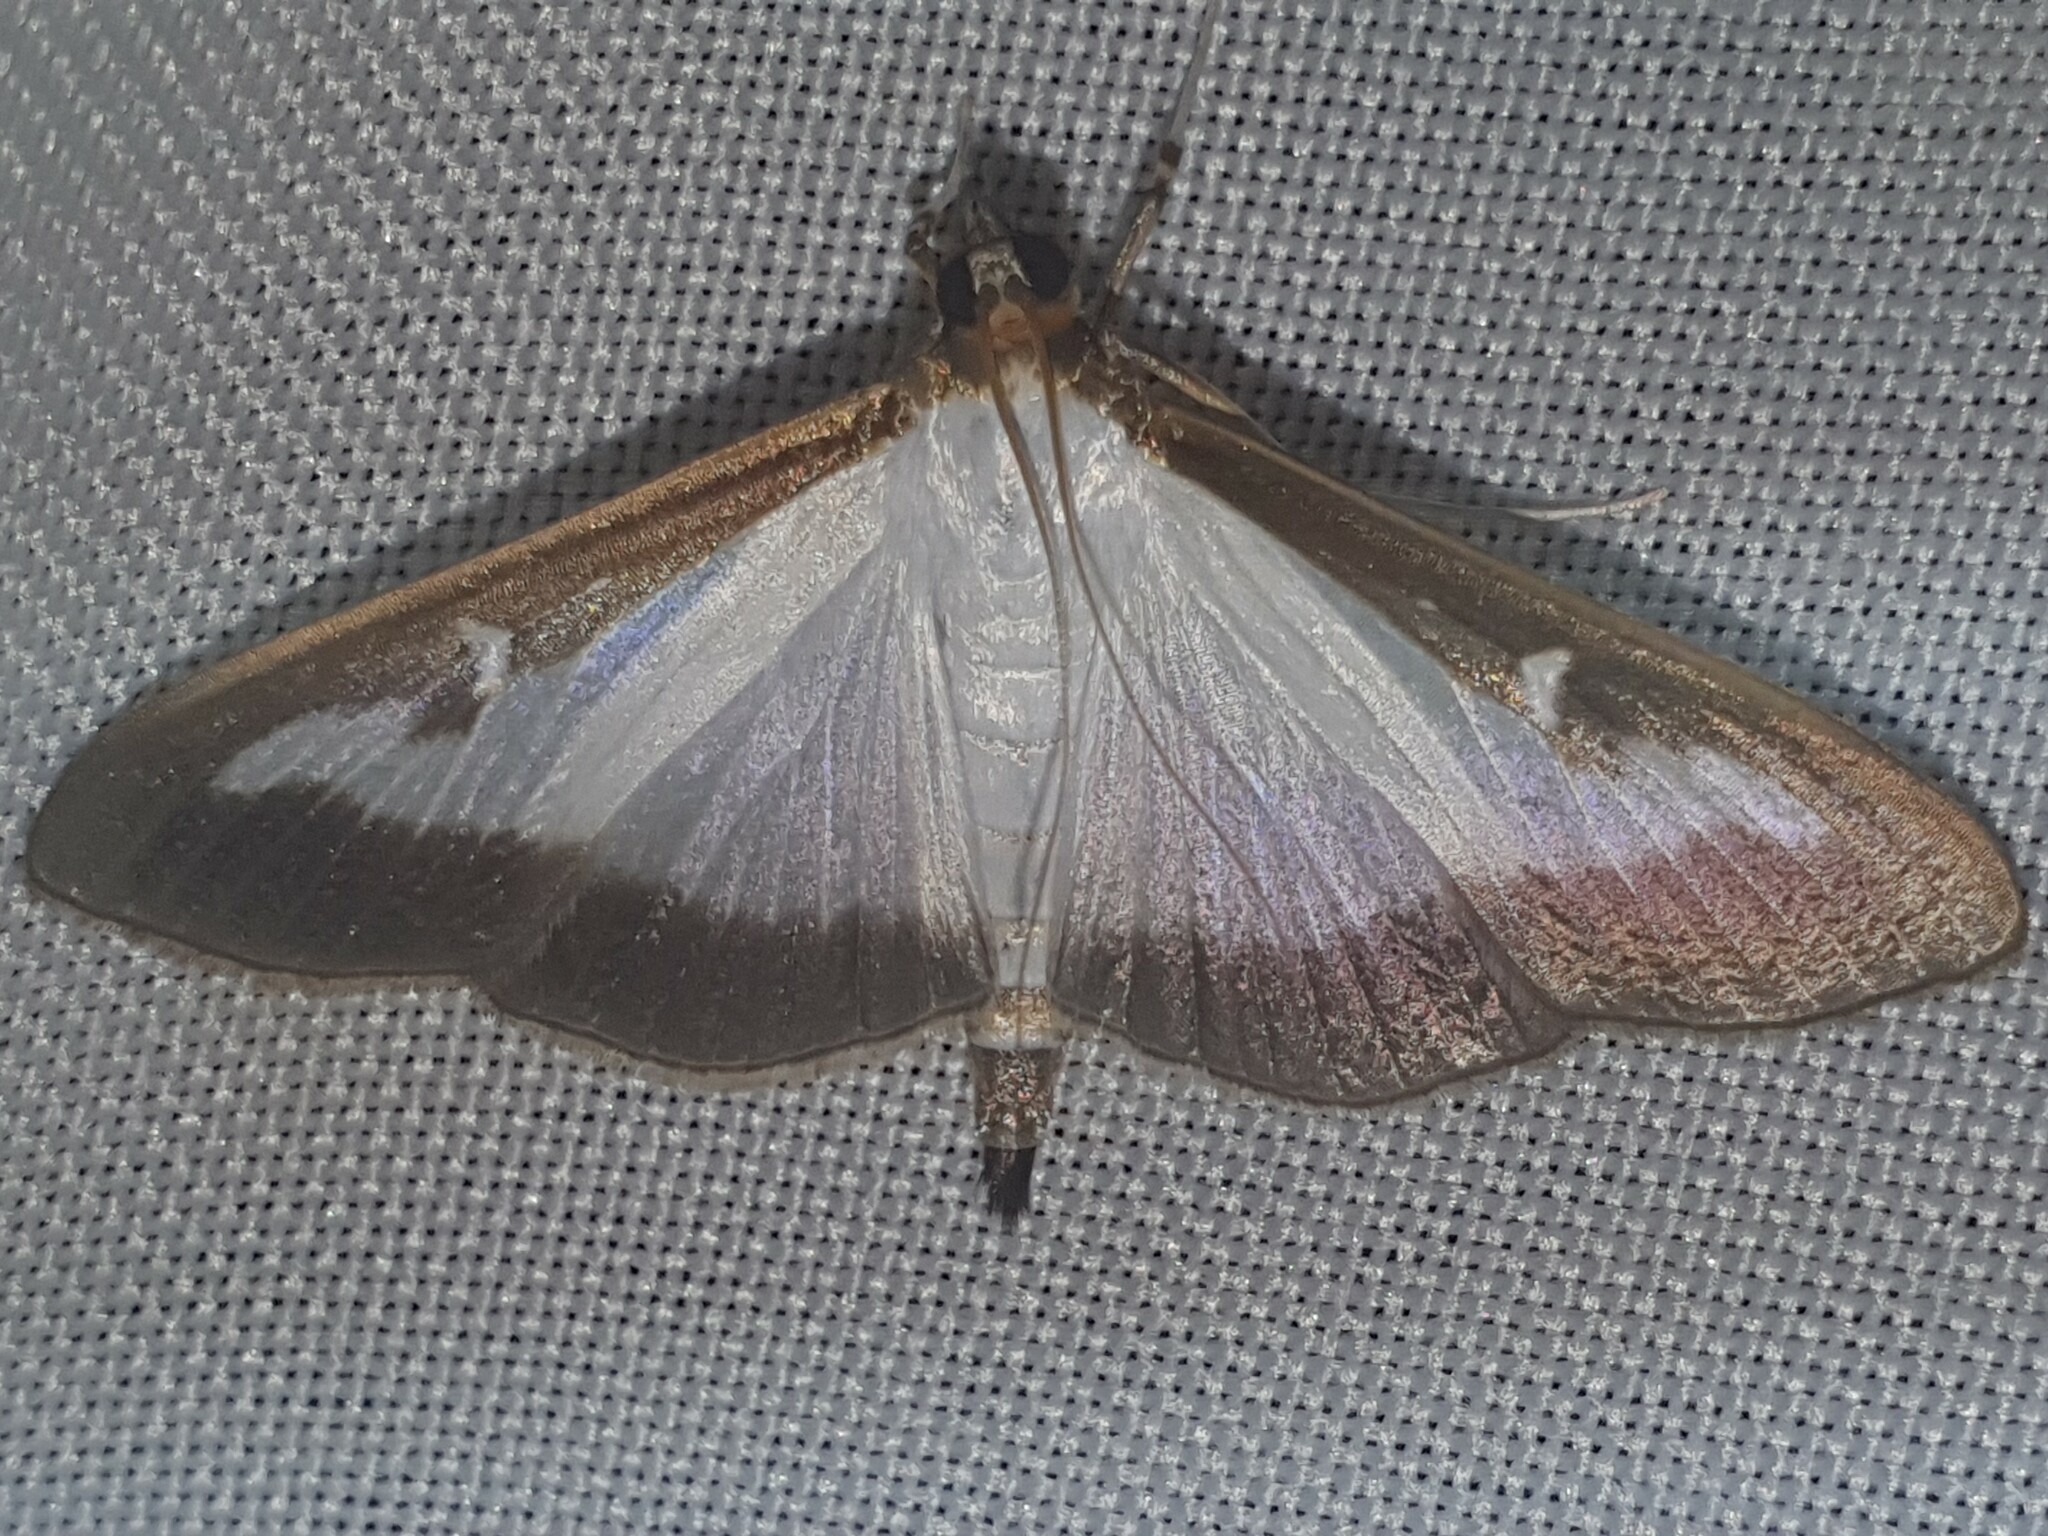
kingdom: Animalia
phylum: Arthropoda
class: Insecta
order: Lepidoptera
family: Crambidae
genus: Cydalima
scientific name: Cydalima perspectalis
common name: Box tree moth
